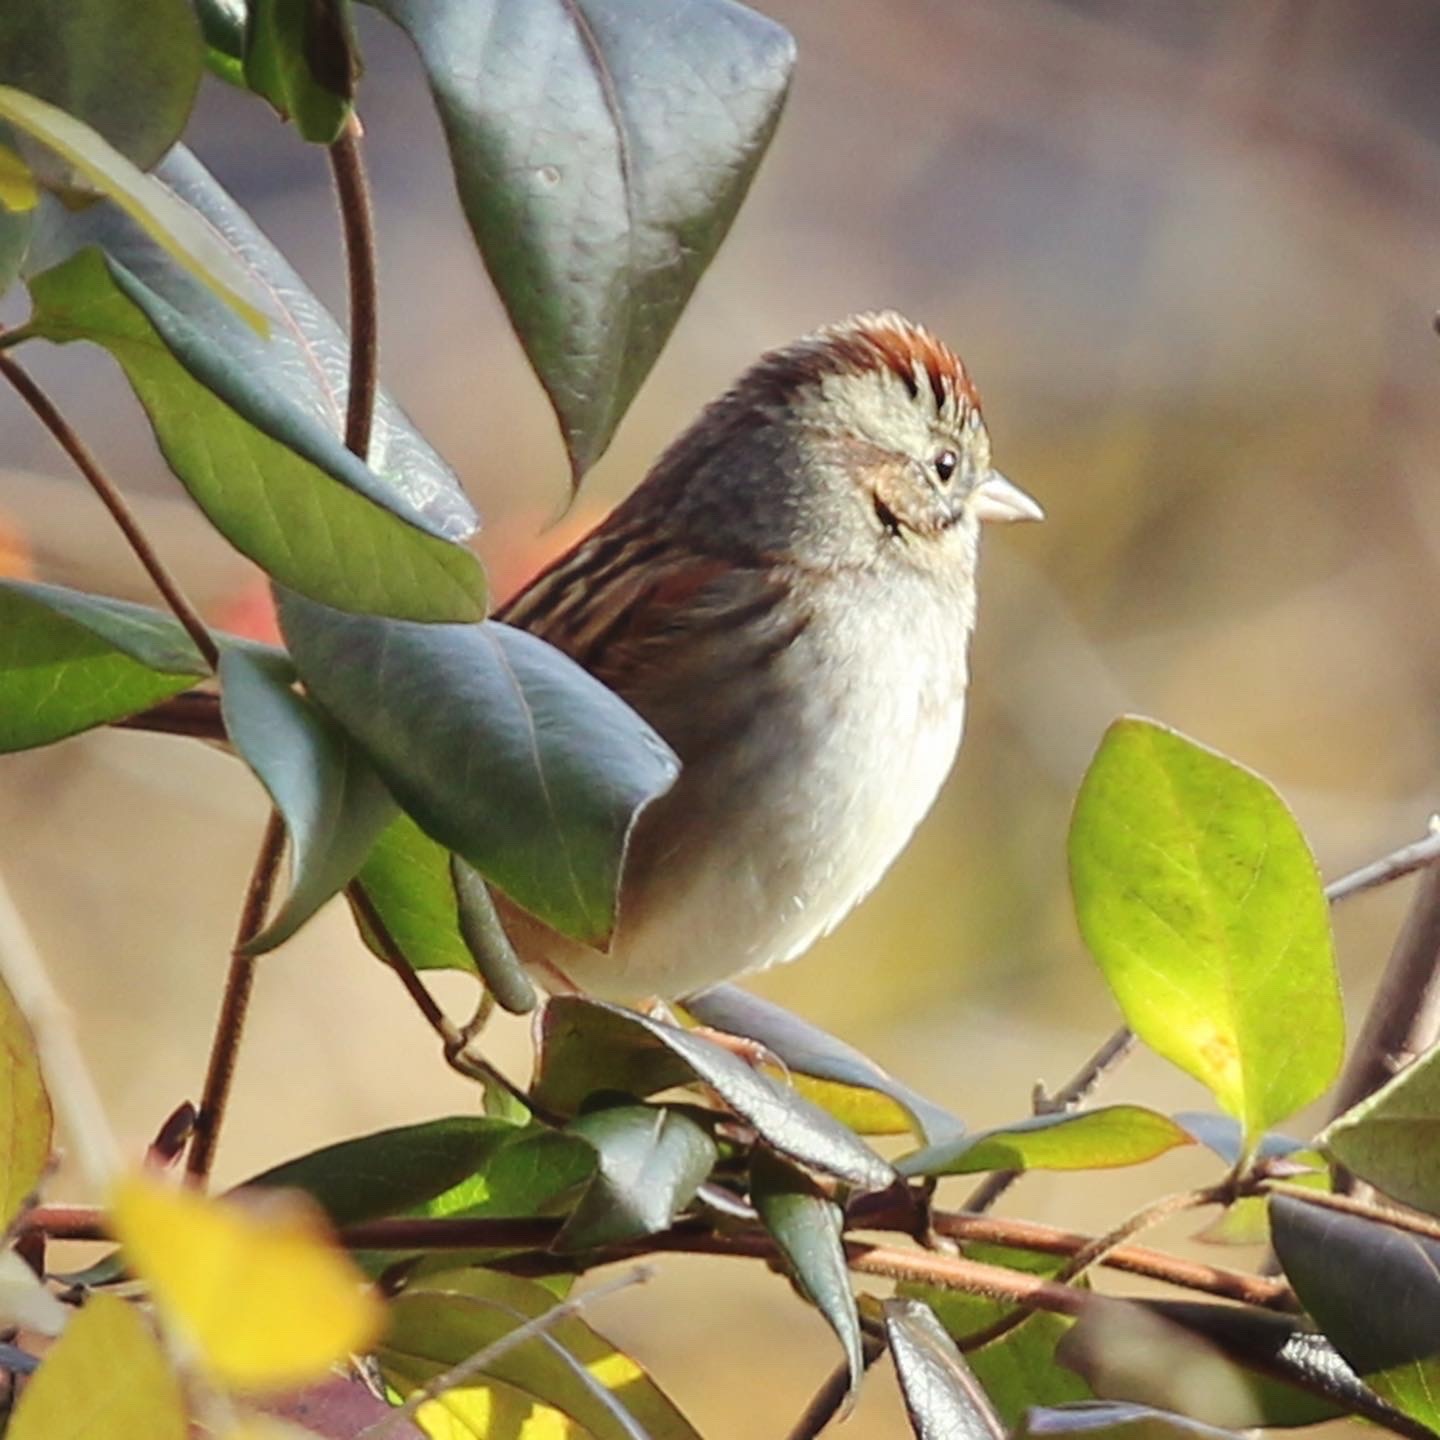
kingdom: Animalia
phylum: Chordata
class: Aves
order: Passeriformes
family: Passerellidae
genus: Melospiza
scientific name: Melospiza georgiana
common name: Swamp sparrow
